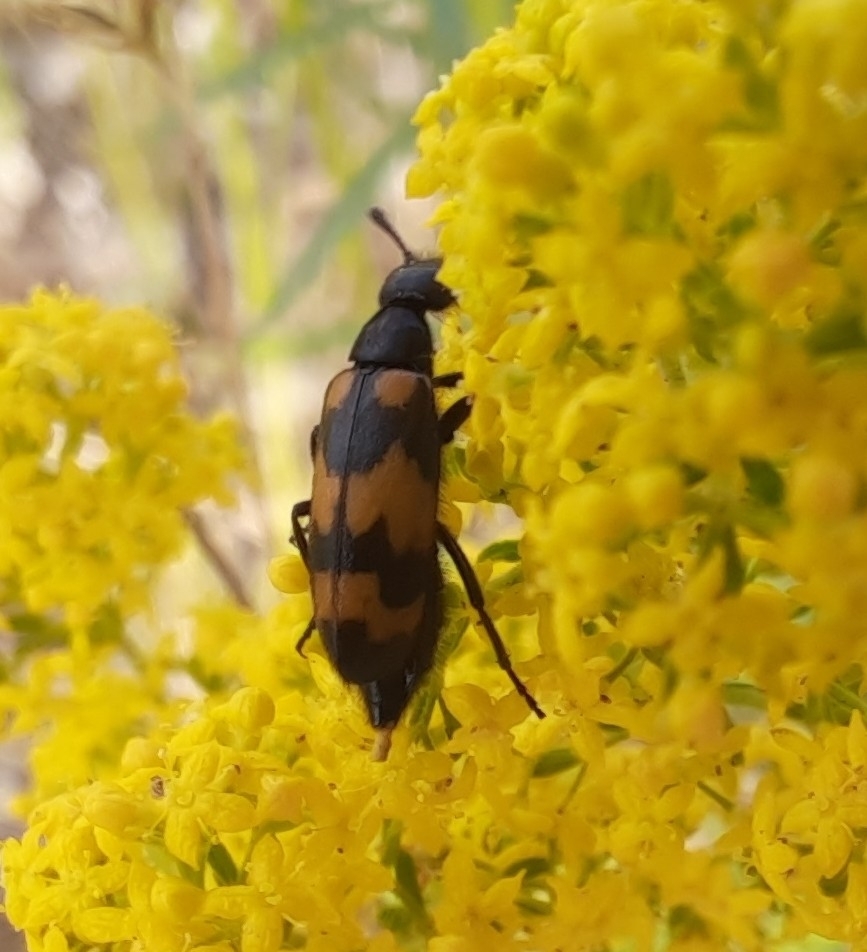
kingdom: Animalia
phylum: Arthropoda
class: Insecta
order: Coleoptera
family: Meloidae
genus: Mylabris
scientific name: Mylabris variabilis
